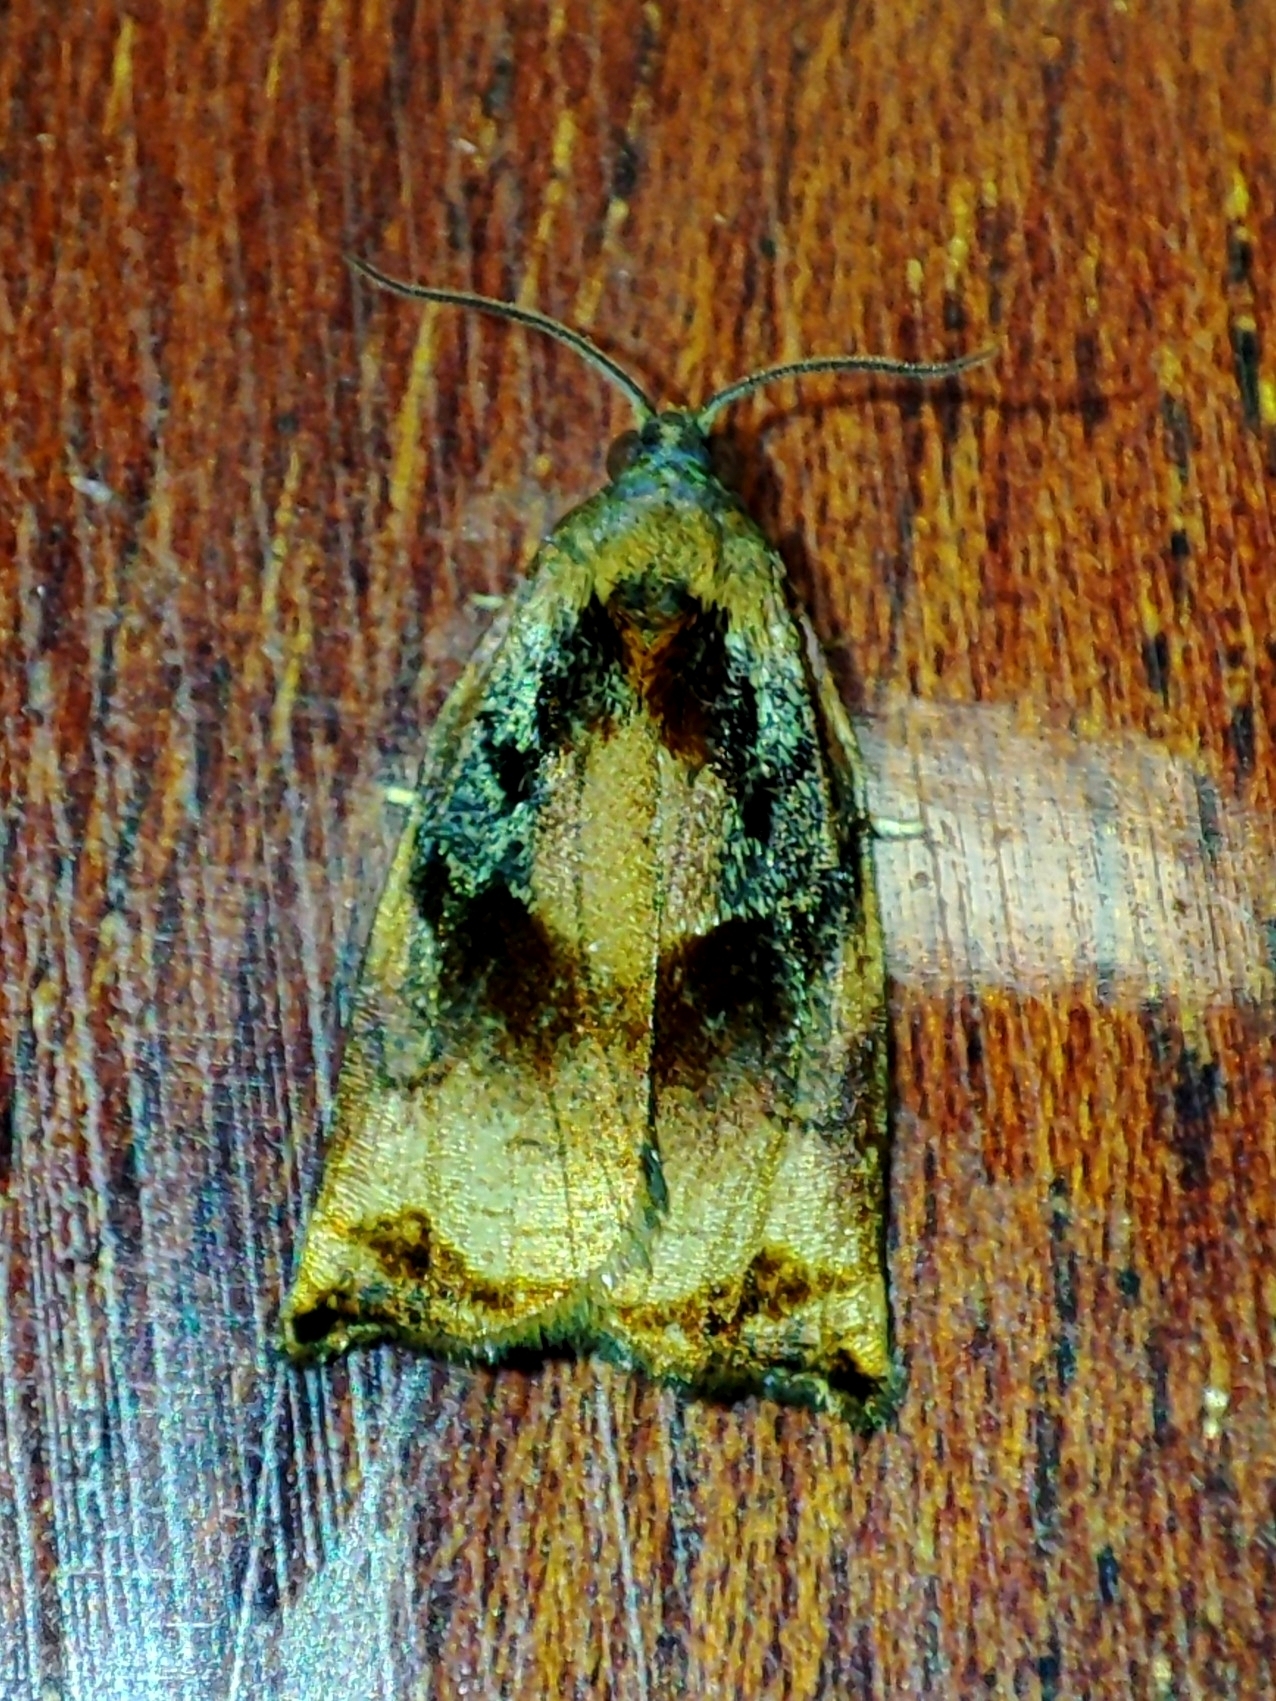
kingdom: Animalia
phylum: Arthropoda
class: Insecta
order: Lepidoptera
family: Tortricidae
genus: Archips
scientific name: Archips podana
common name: Large fruit-tree tortrix
